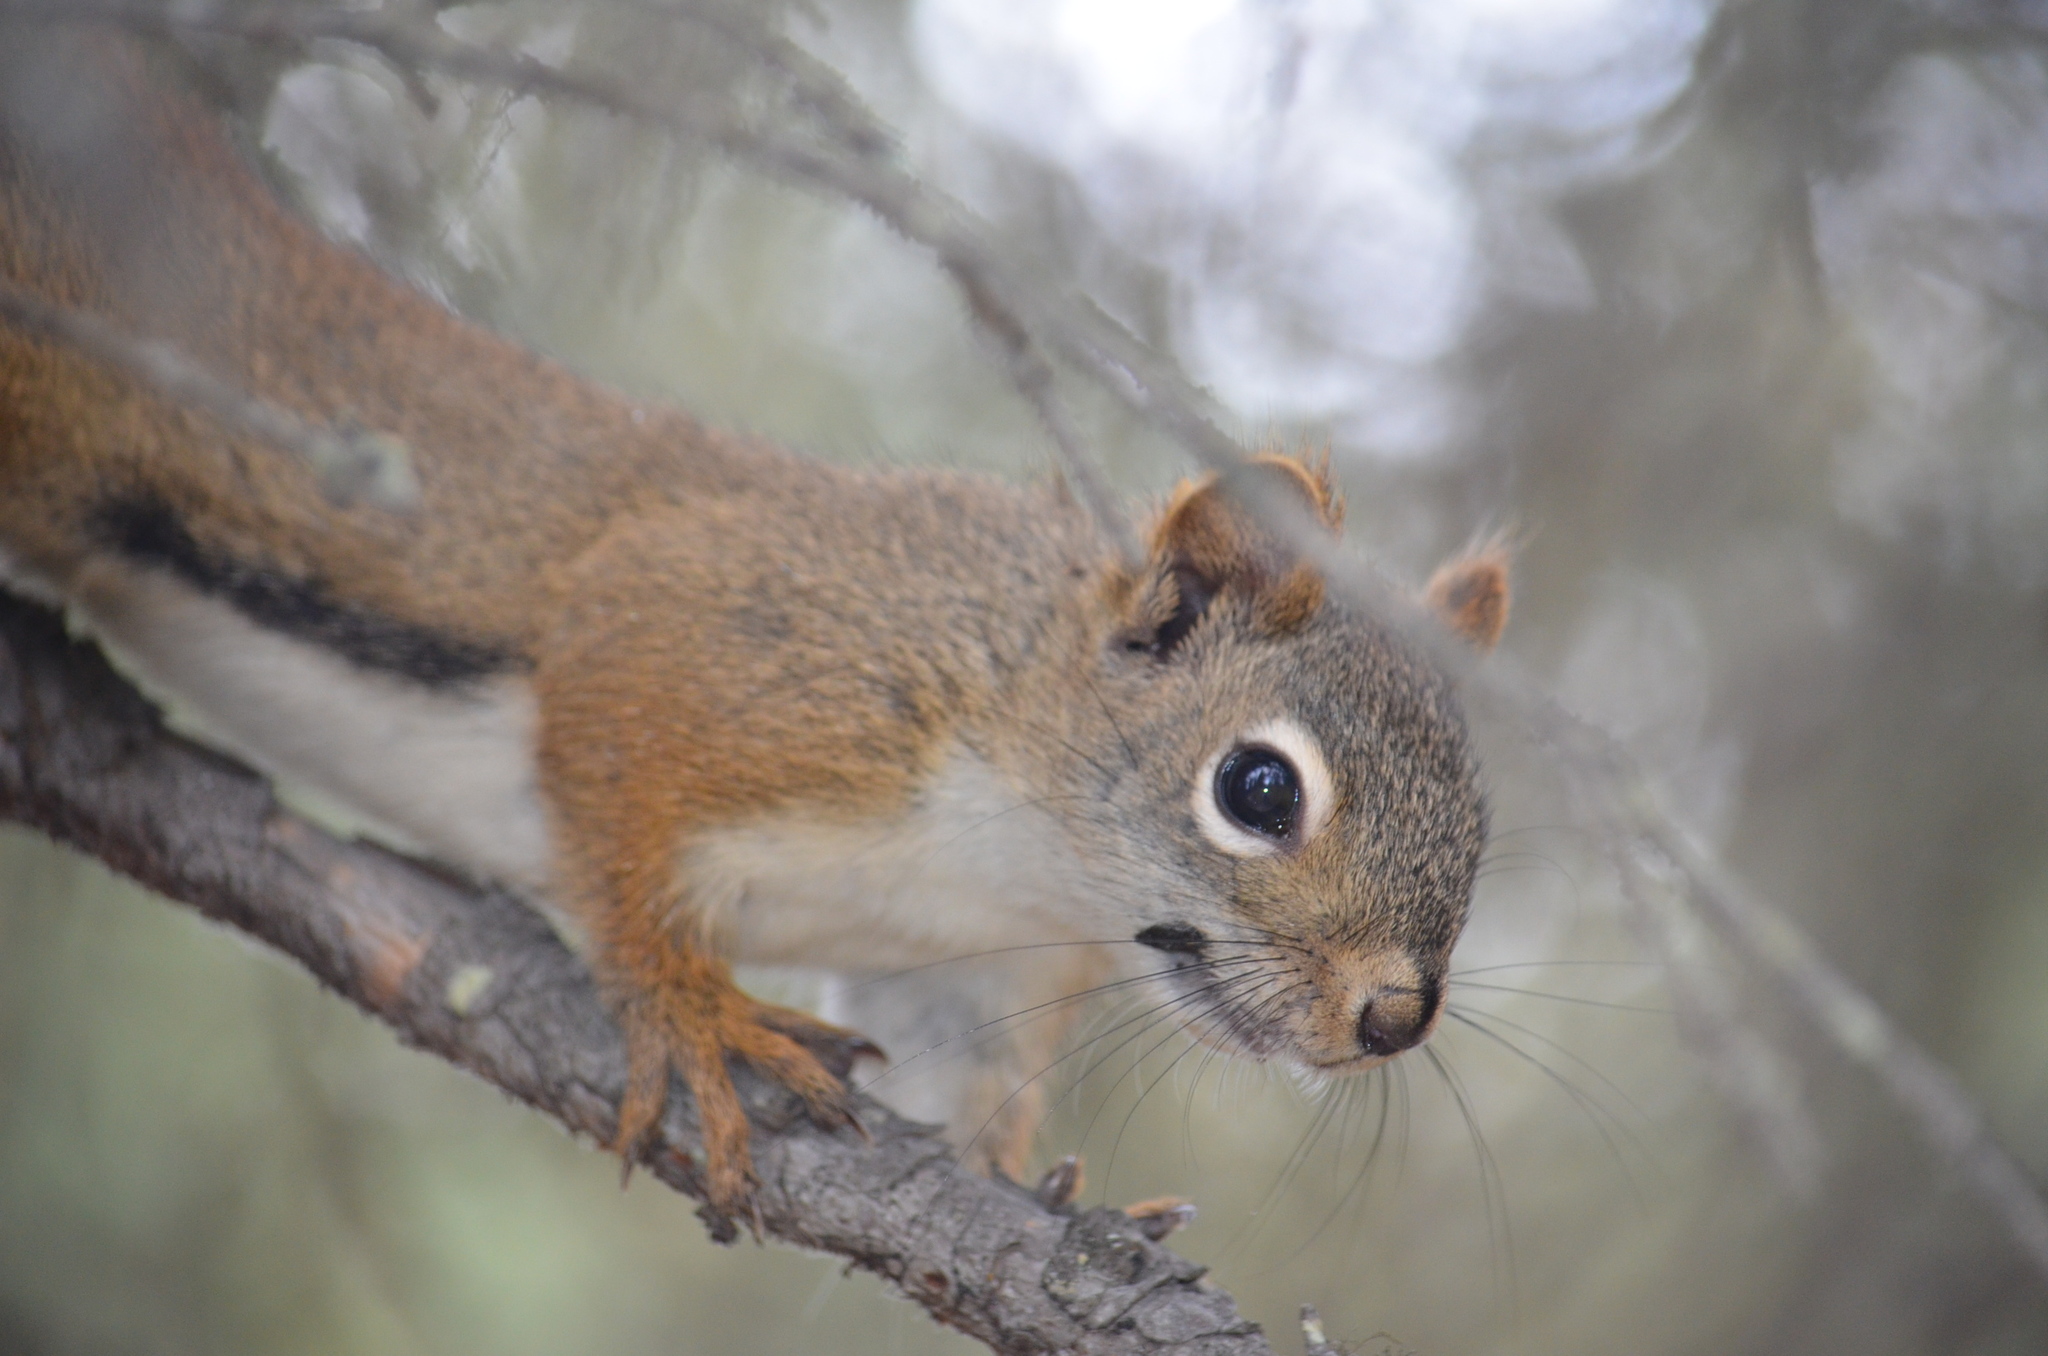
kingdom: Animalia
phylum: Chordata
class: Mammalia
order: Rodentia
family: Sciuridae
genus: Tamiasciurus
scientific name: Tamiasciurus hudsonicus
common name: Red squirrel
